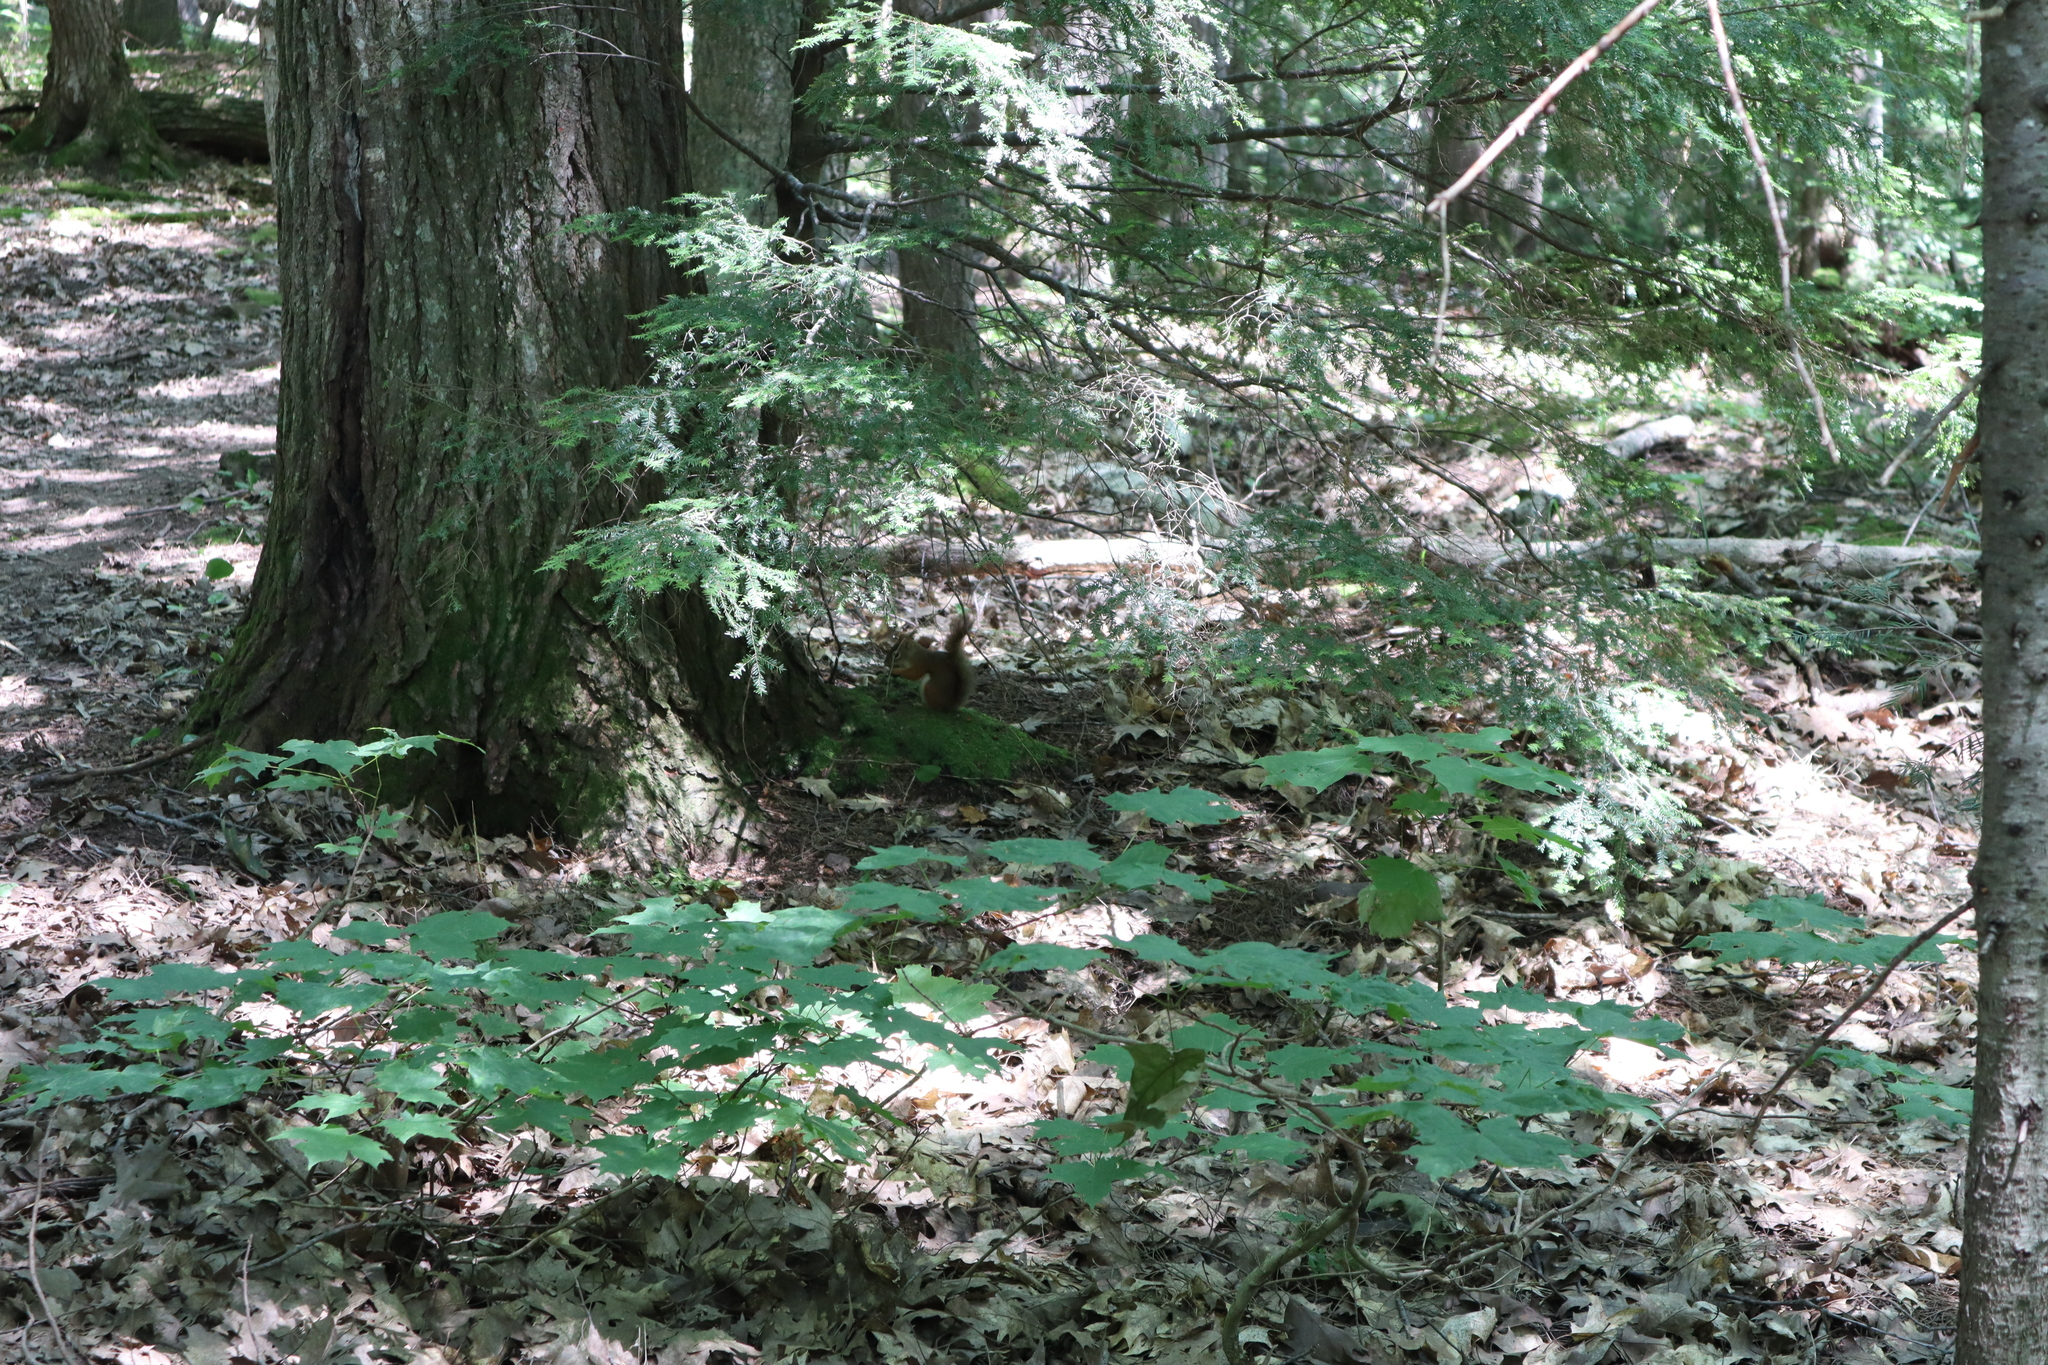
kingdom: Animalia
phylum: Chordata
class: Mammalia
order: Rodentia
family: Sciuridae
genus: Tamiasciurus
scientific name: Tamiasciurus hudsonicus
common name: Red squirrel
